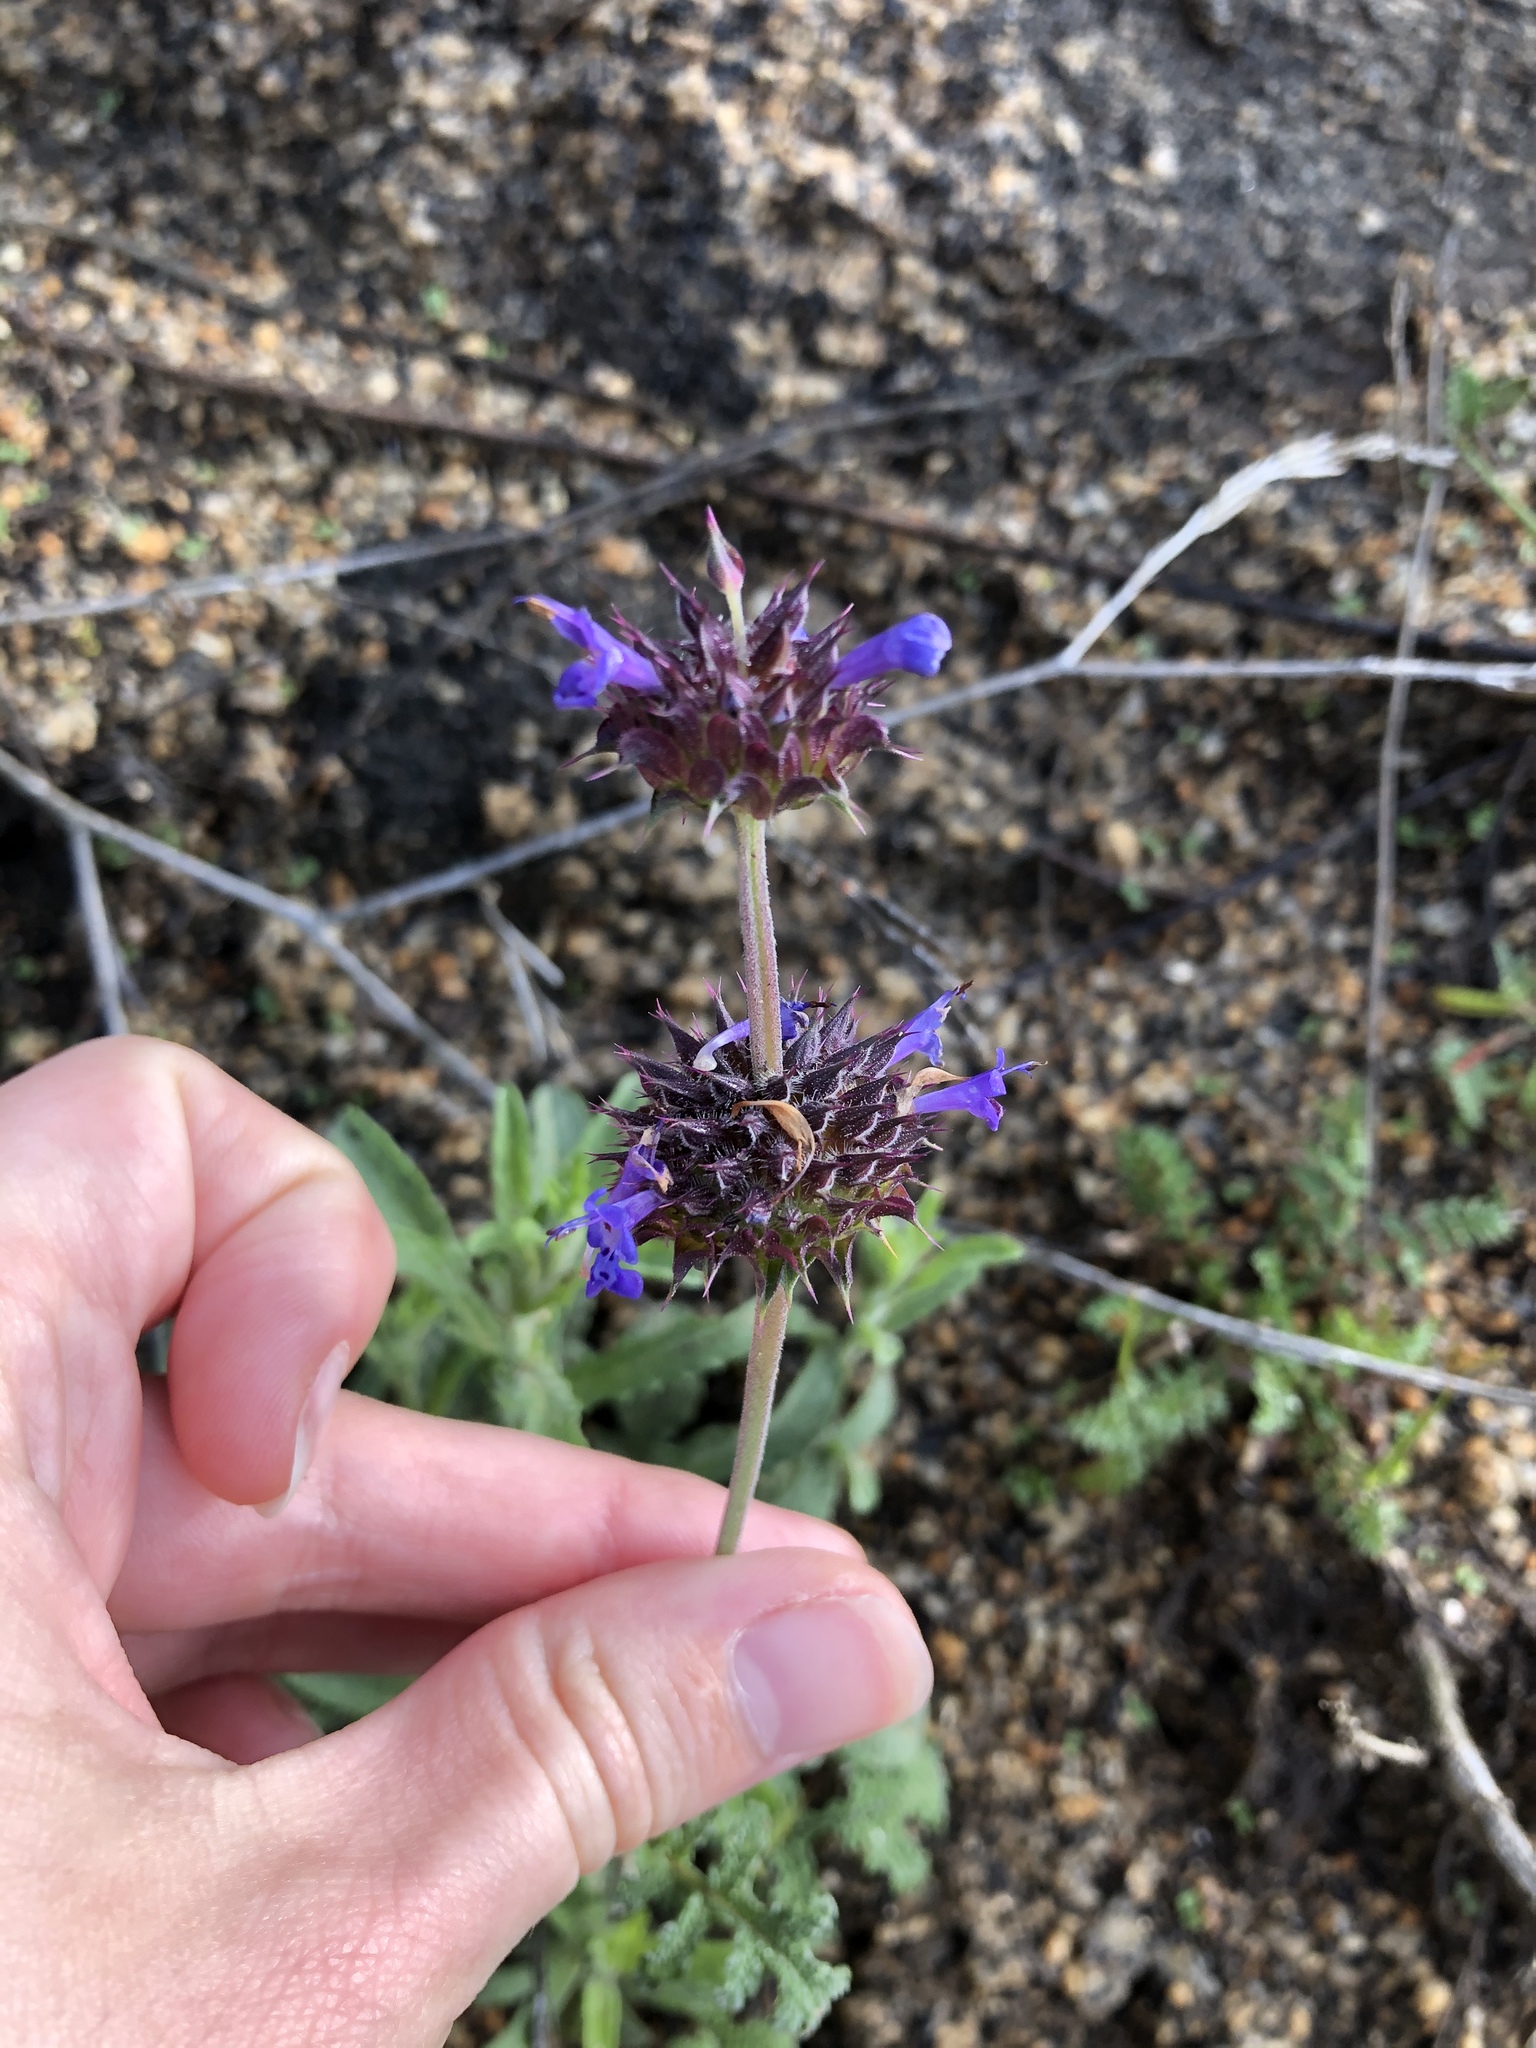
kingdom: Plantae
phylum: Tracheophyta
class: Magnoliopsida
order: Lamiales
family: Lamiaceae
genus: Salvia
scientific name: Salvia columbariae
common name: Chia
